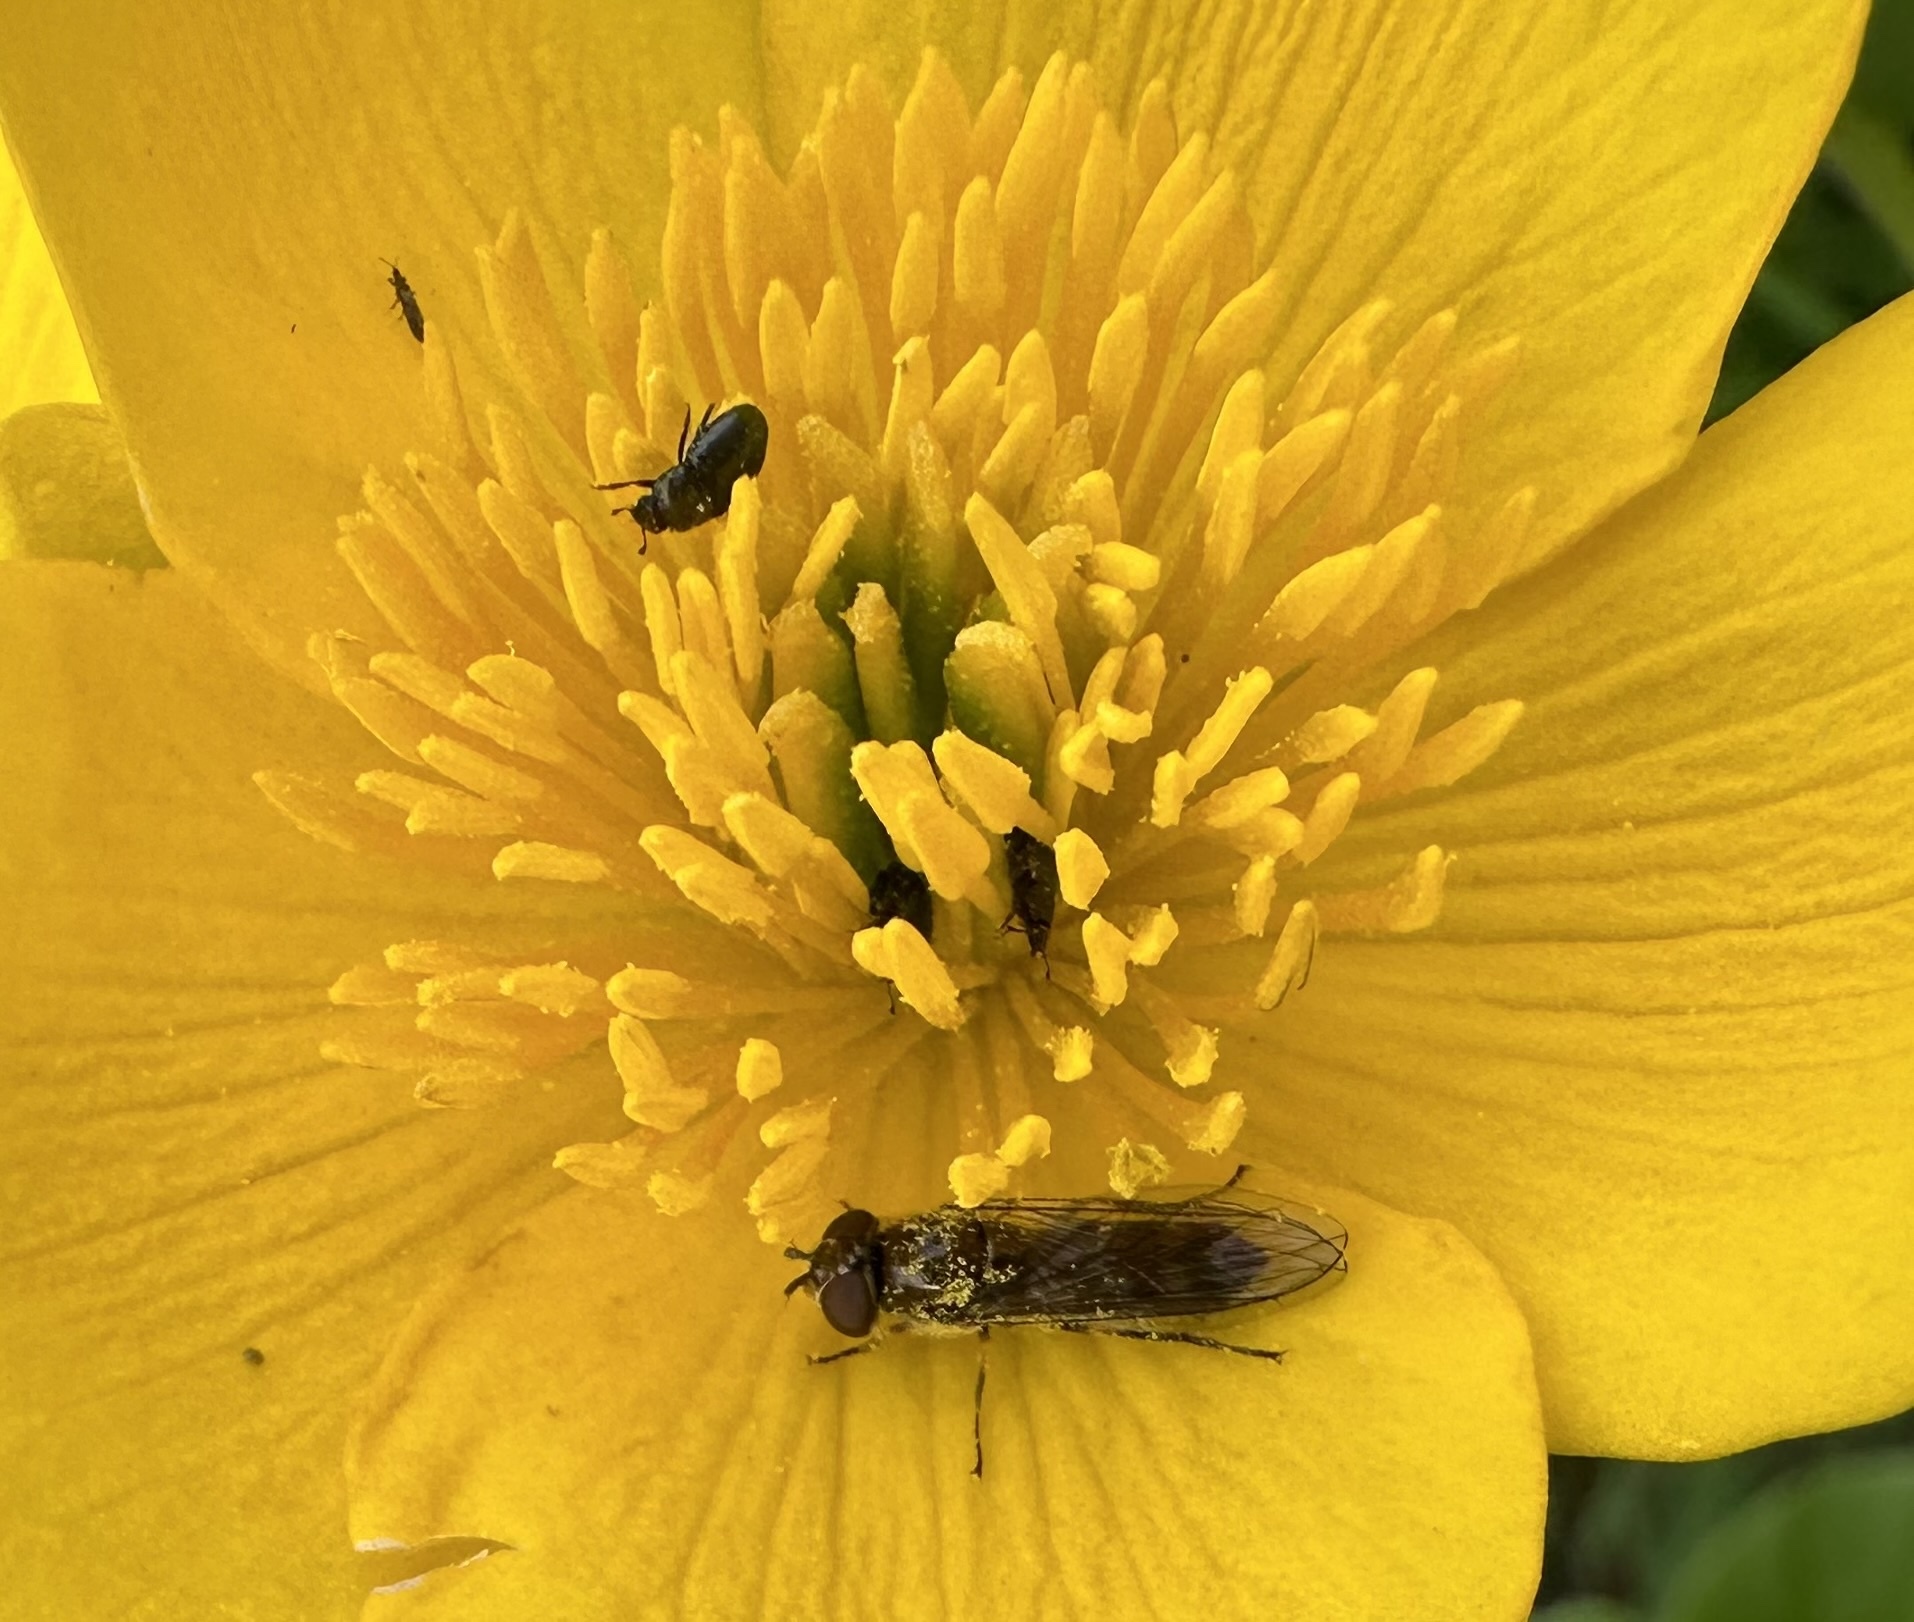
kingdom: Animalia
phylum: Arthropoda
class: Insecta
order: Diptera
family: Syrphidae
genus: Platycheirus
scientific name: Platycheirus albimanus
